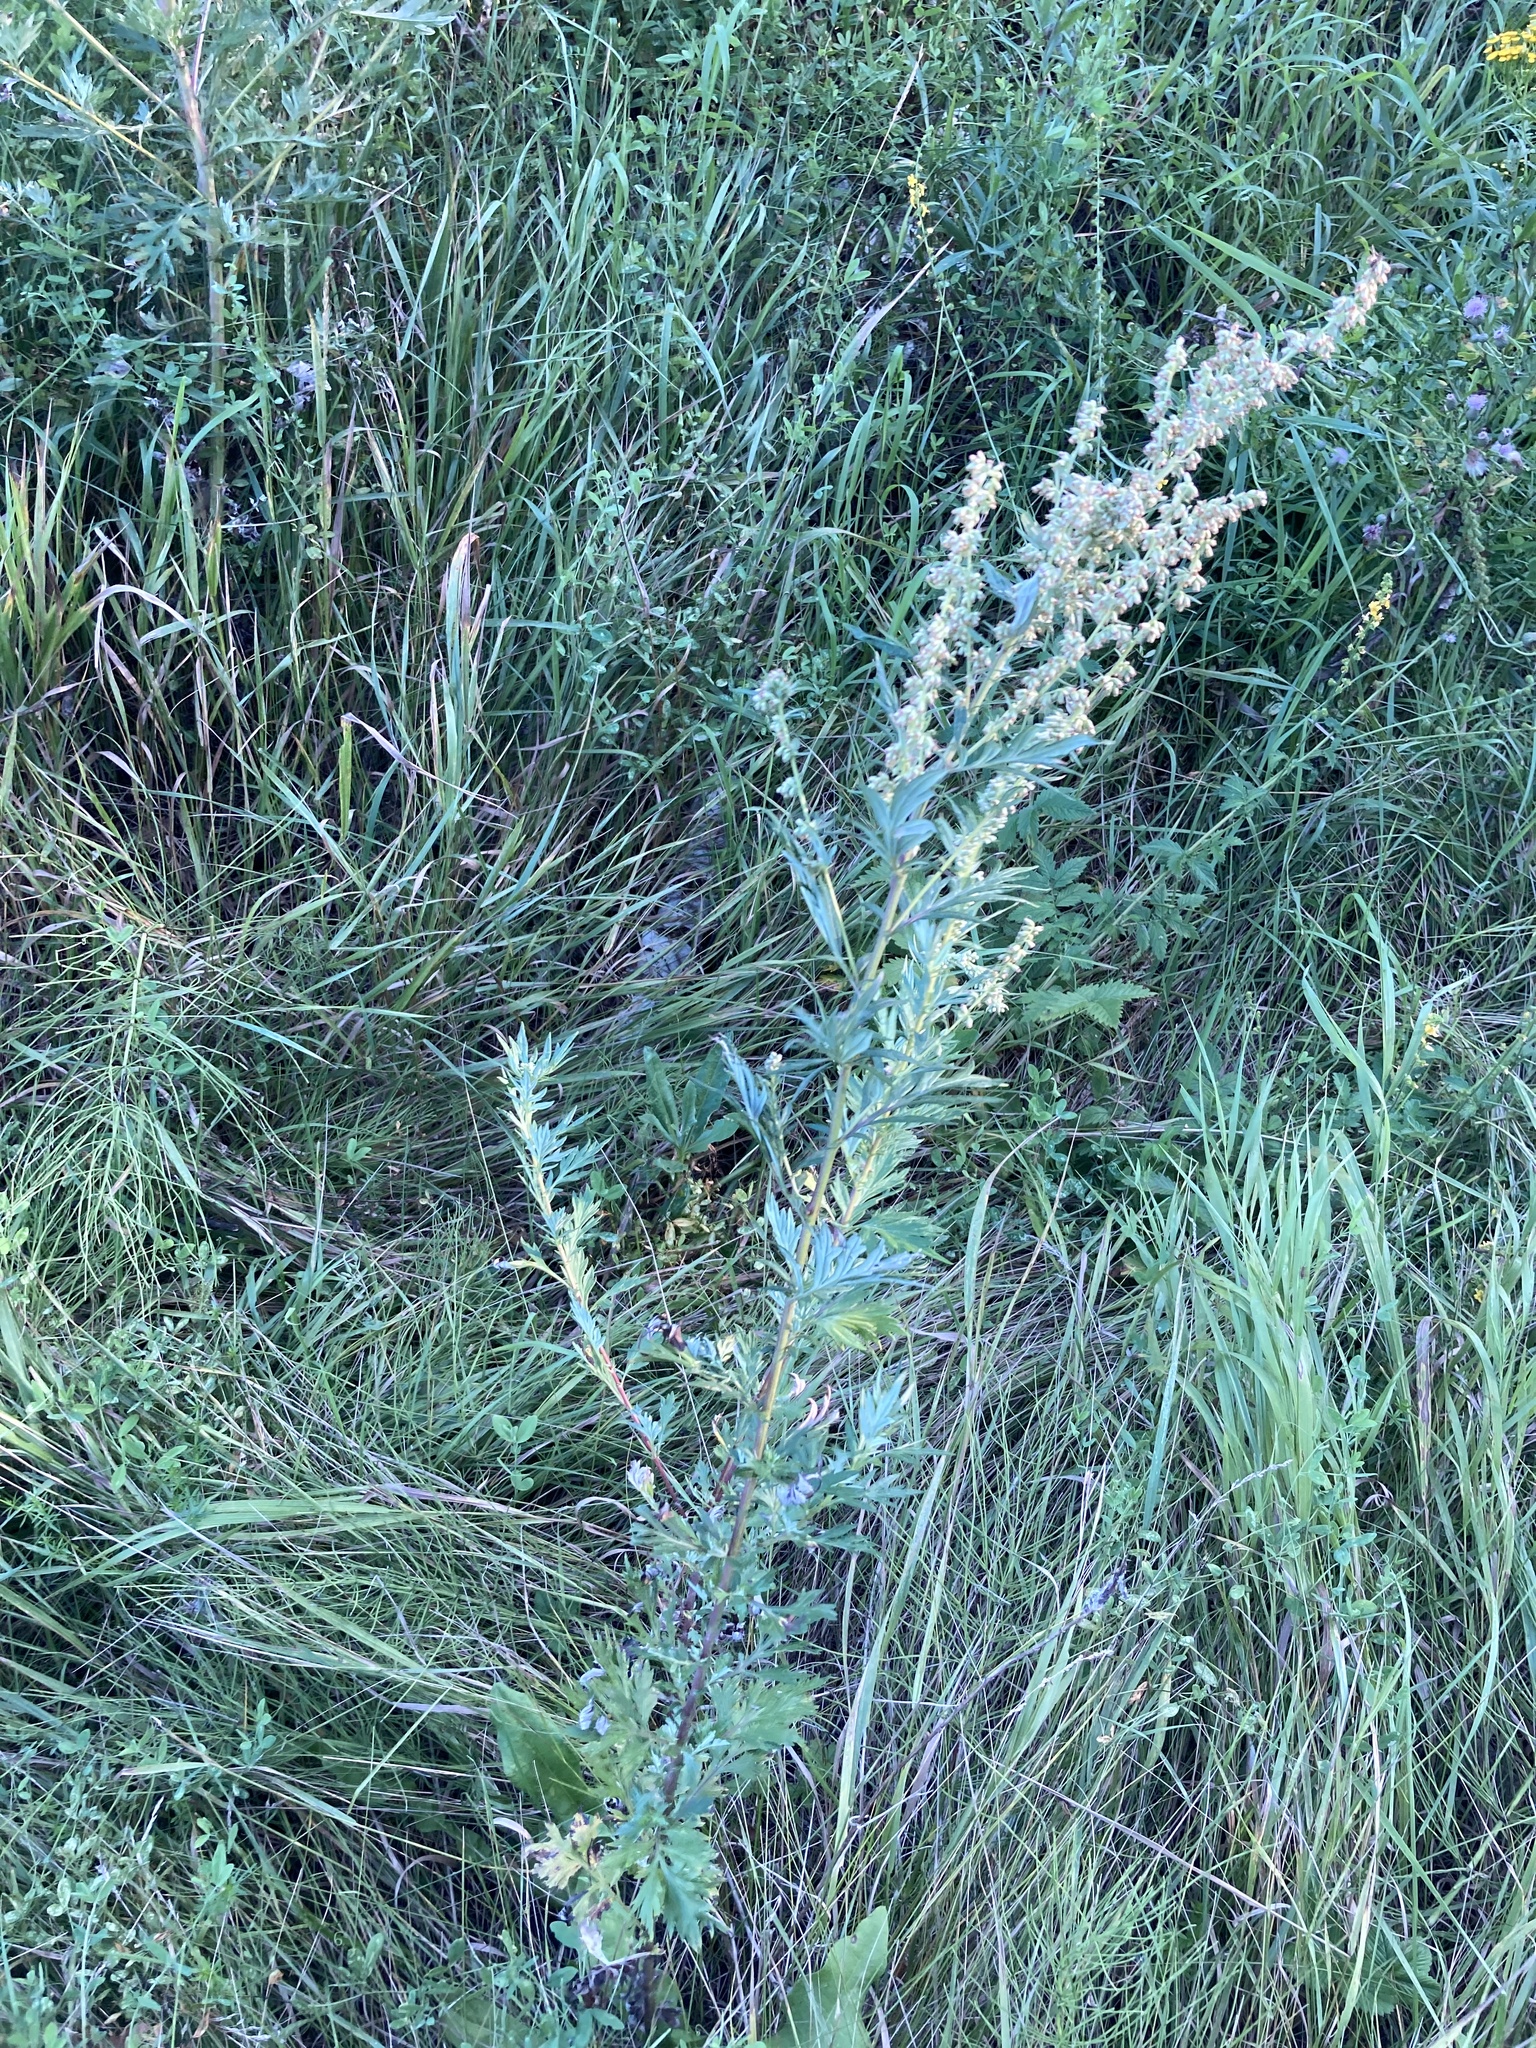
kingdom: Plantae
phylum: Tracheophyta
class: Magnoliopsida
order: Asterales
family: Asteraceae
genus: Artemisia
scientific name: Artemisia vulgaris
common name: Mugwort
